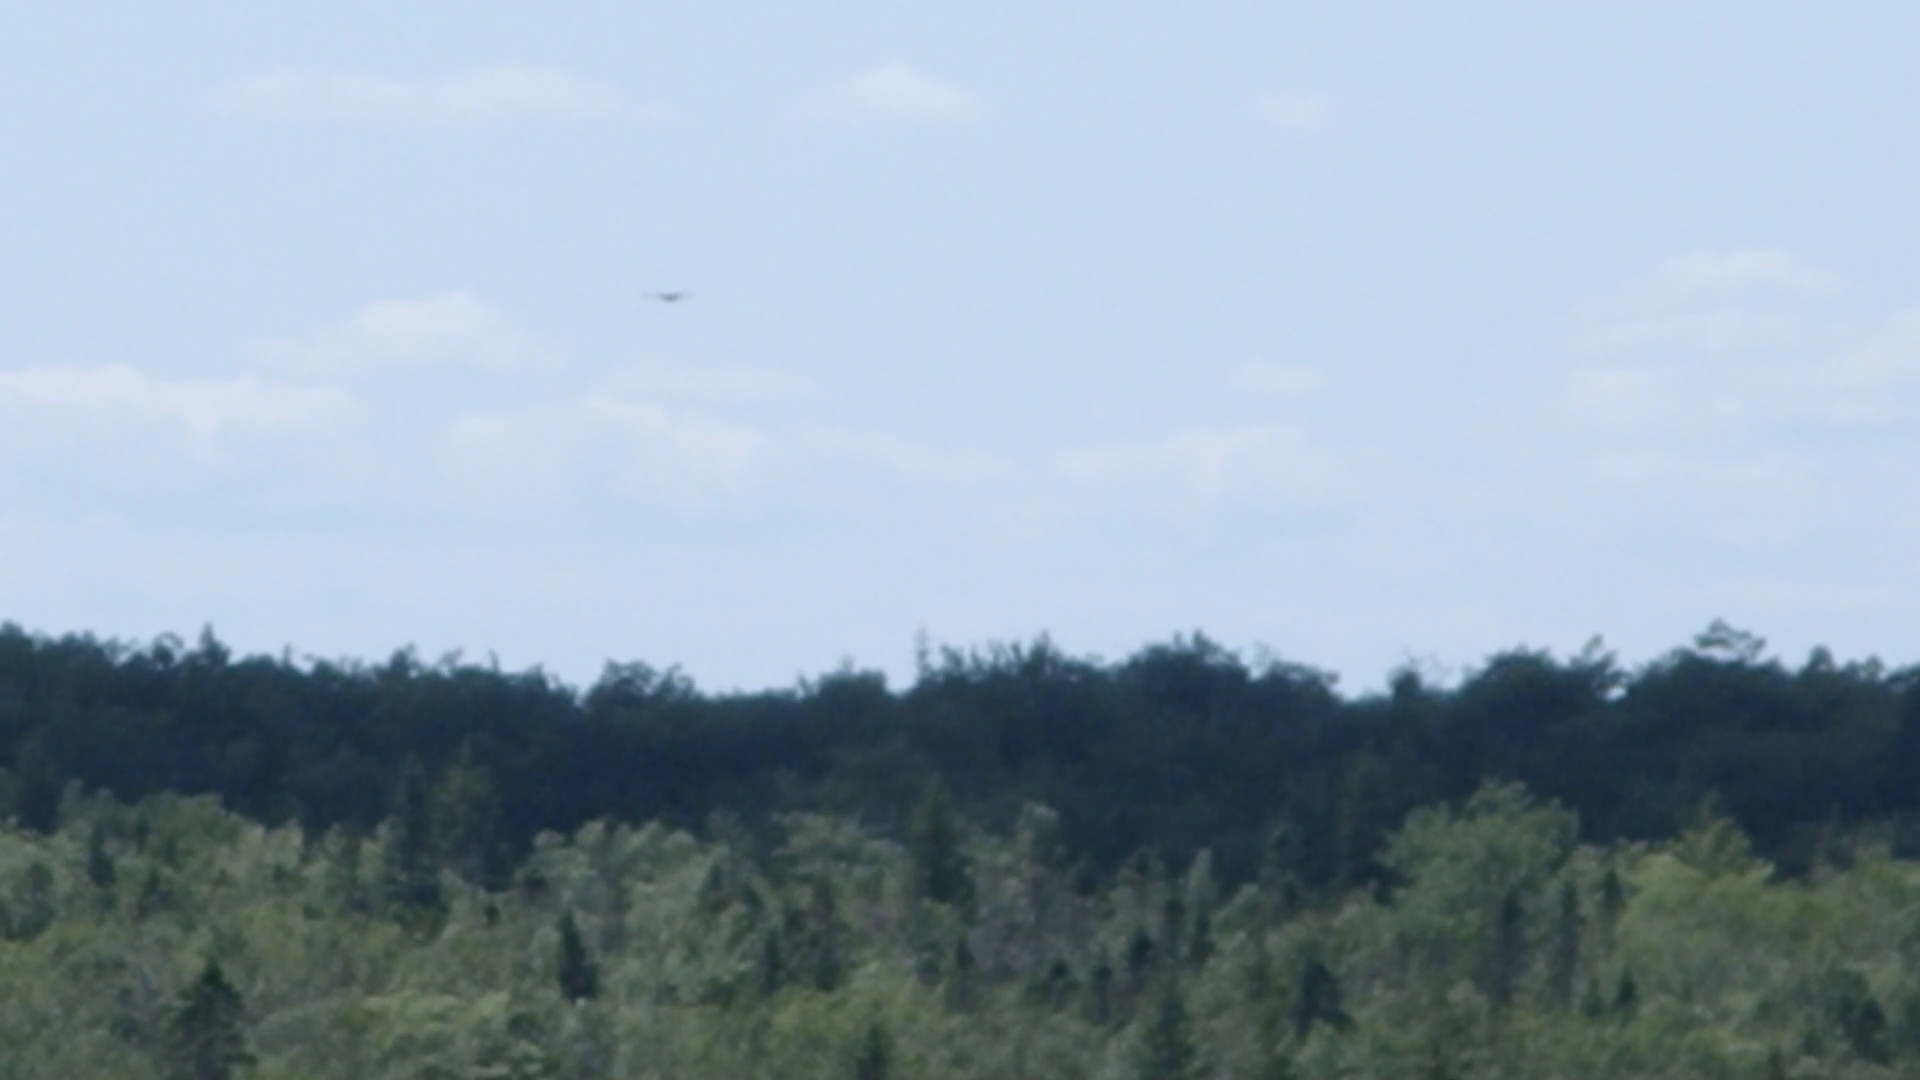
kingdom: Animalia
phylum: Chordata
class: Aves
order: Passeriformes
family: Corvidae
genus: Corvus
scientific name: Corvus corax
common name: Common raven
